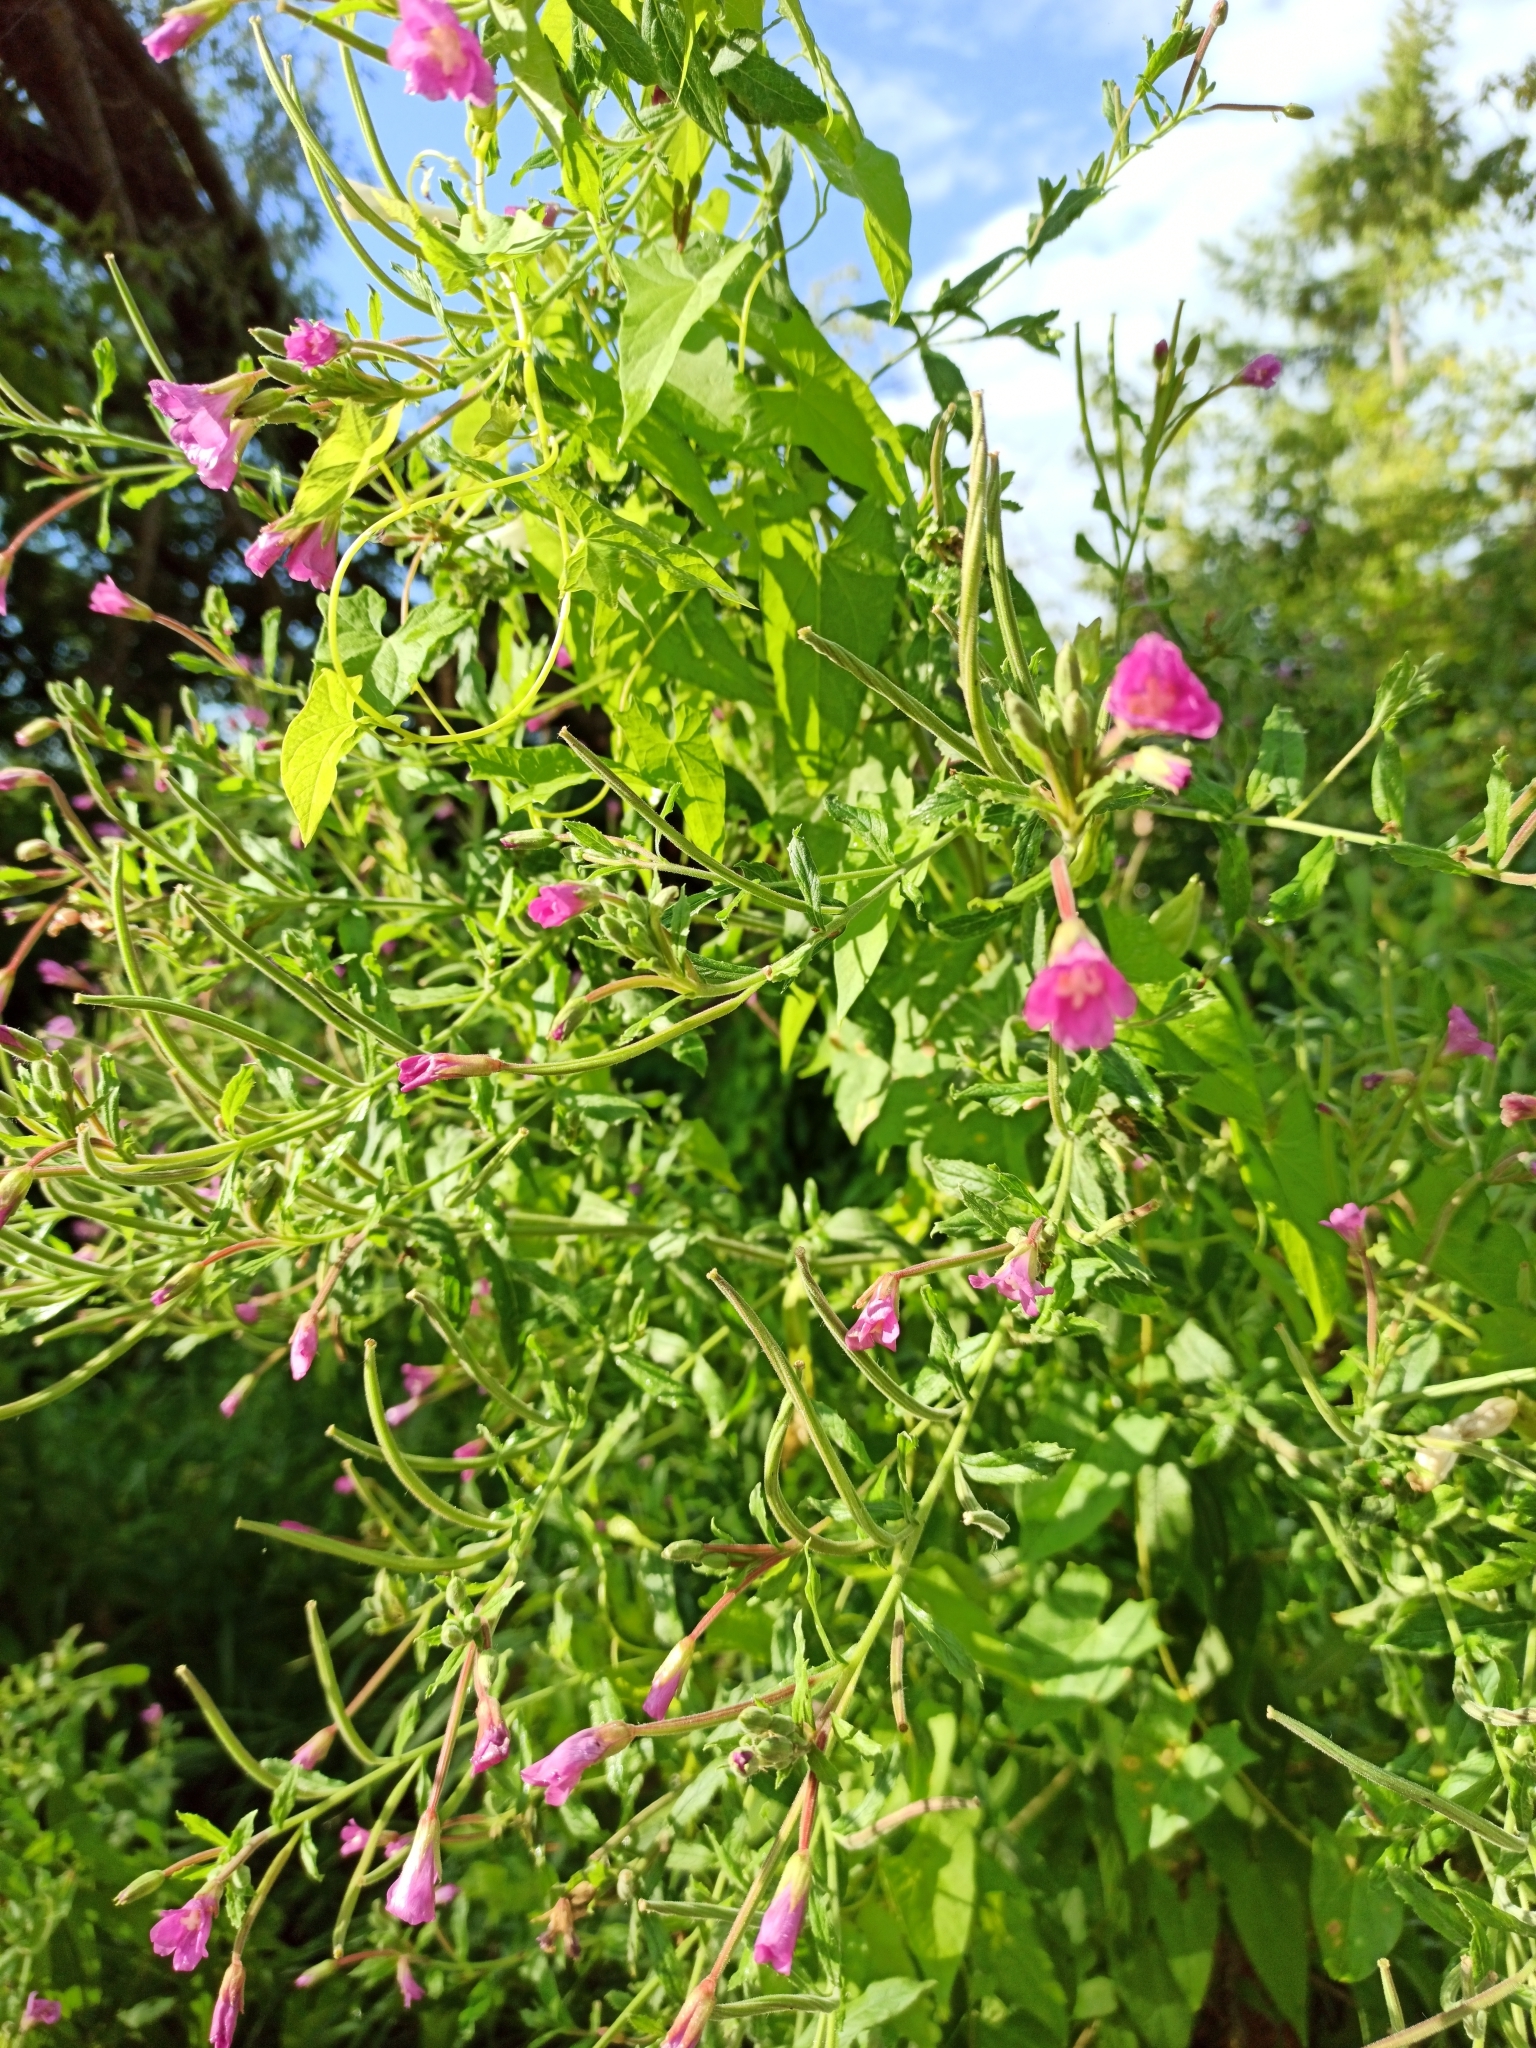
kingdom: Plantae
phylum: Tracheophyta
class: Magnoliopsida
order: Myrtales
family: Onagraceae
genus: Epilobium
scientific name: Epilobium hirsutum
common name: Great willowherb
